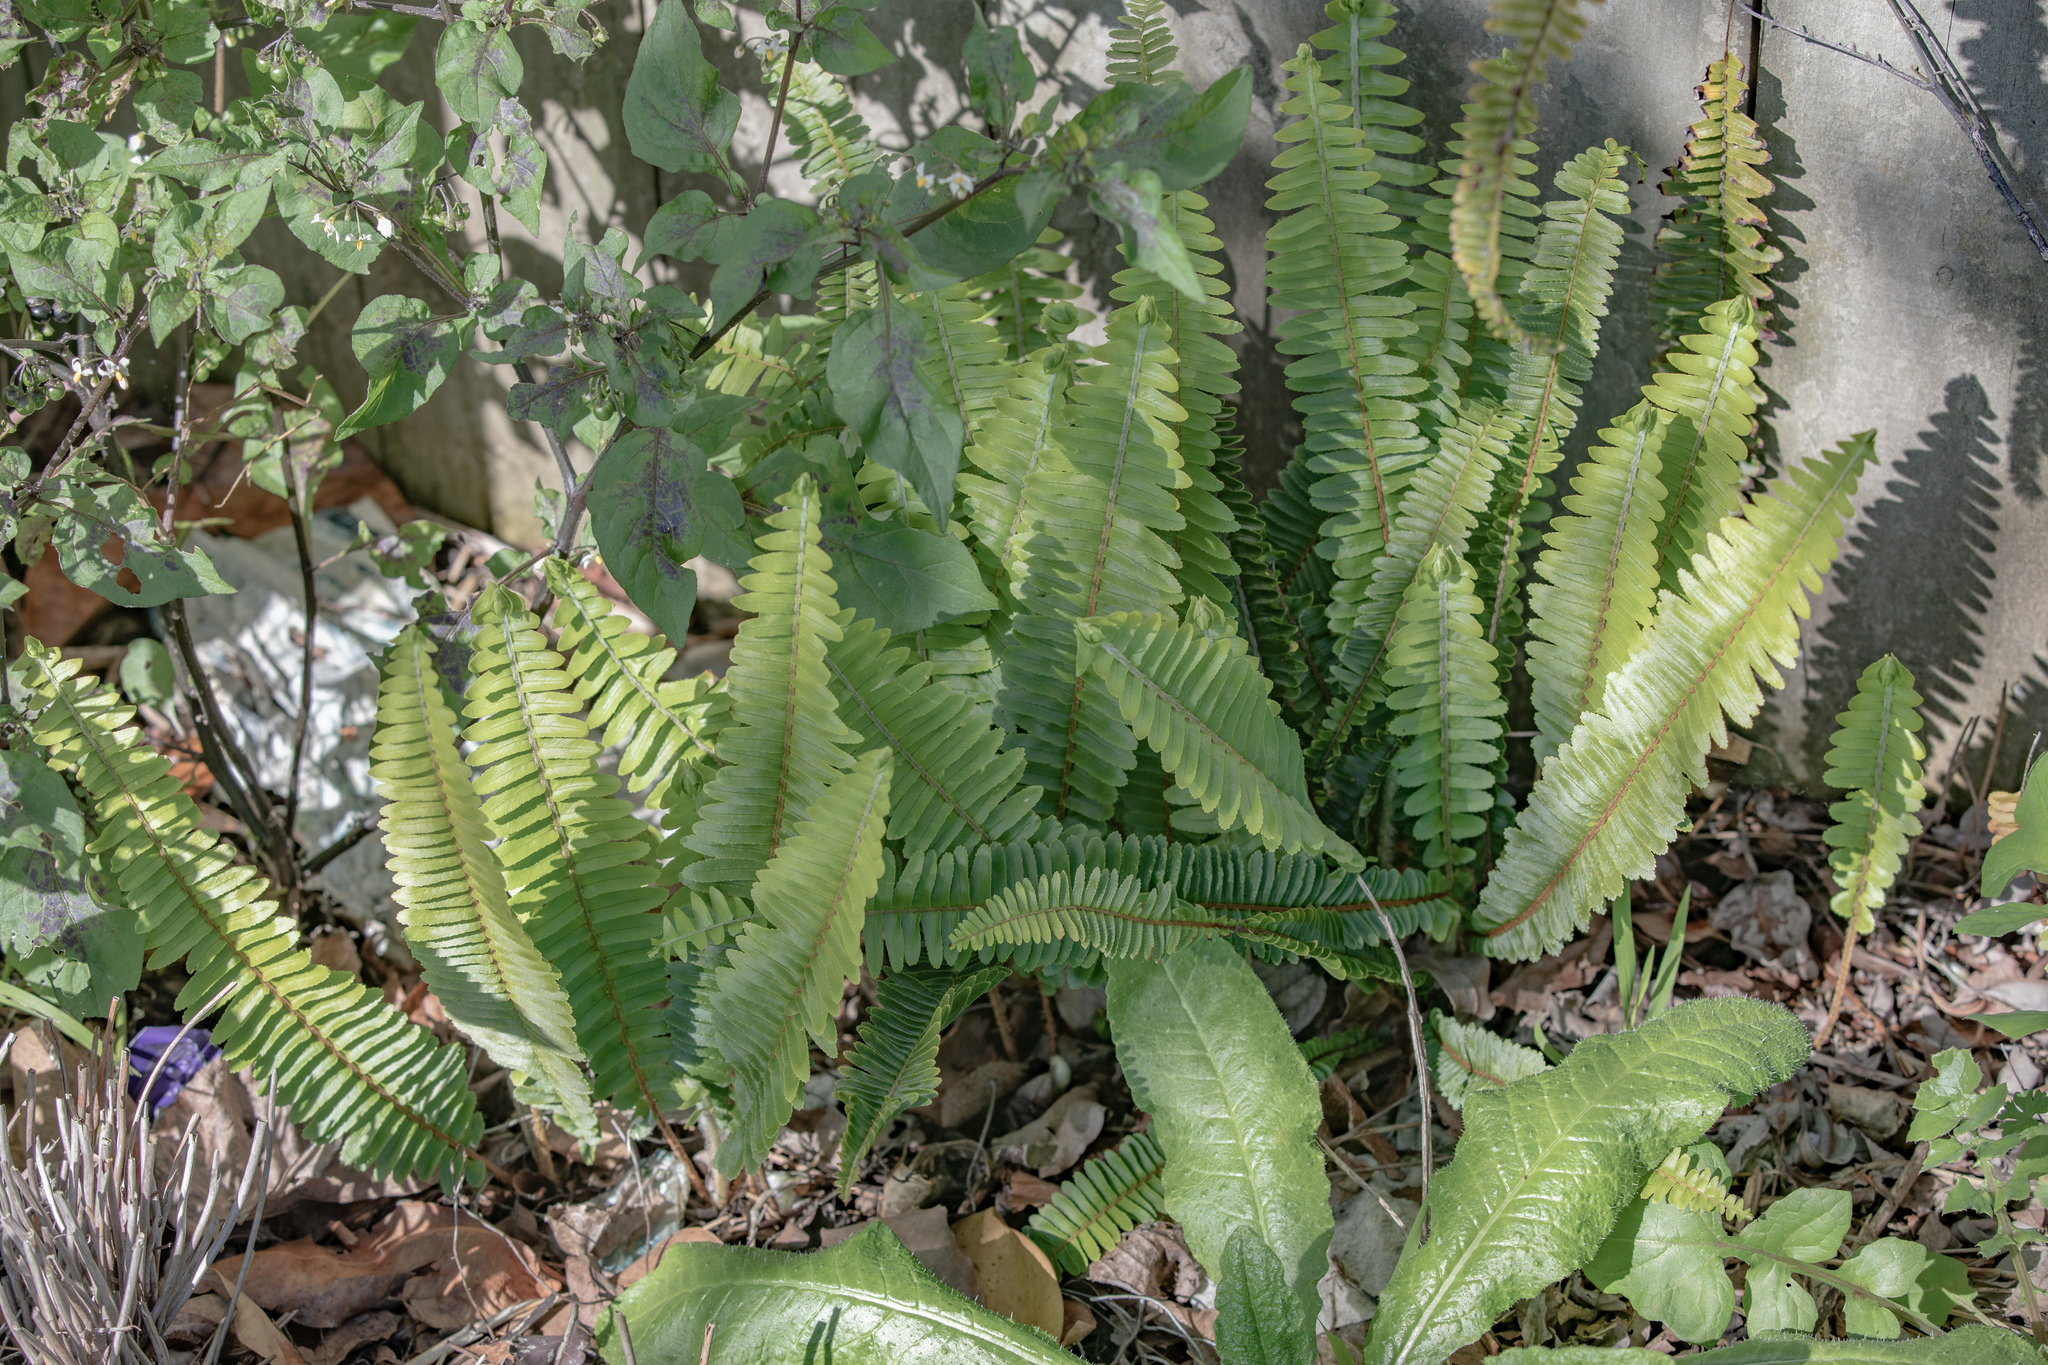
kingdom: Plantae
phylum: Tracheophyta
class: Polypodiopsida
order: Polypodiales
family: Nephrolepidaceae
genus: Nephrolepis
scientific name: Nephrolepis cordifolia
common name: Narrow swordfern
